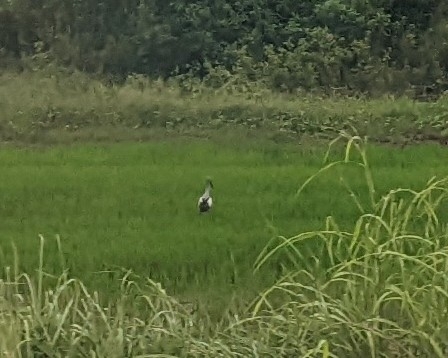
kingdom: Animalia
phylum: Chordata
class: Aves
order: Ciconiiformes
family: Ciconiidae
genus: Anastomus
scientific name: Anastomus oscitans
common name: Asian openbill
